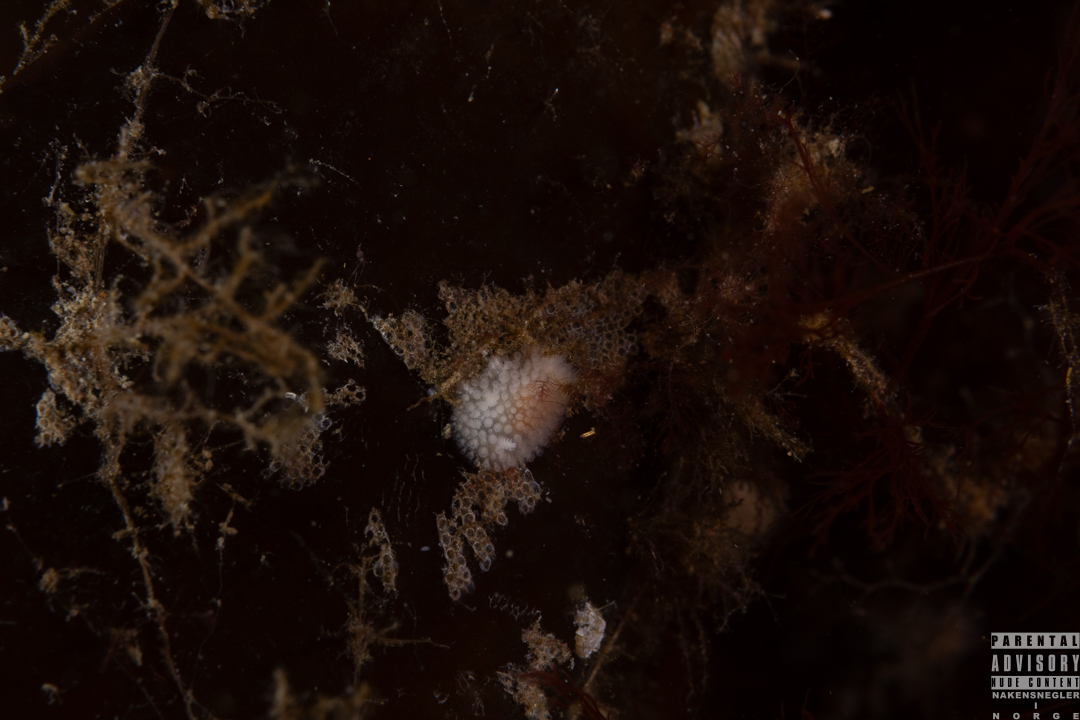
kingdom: Animalia
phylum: Mollusca
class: Gastropoda
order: Nudibranchia
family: Onchidorididae
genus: Onchidoris
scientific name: Onchidoris muricata
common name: Rough doris
